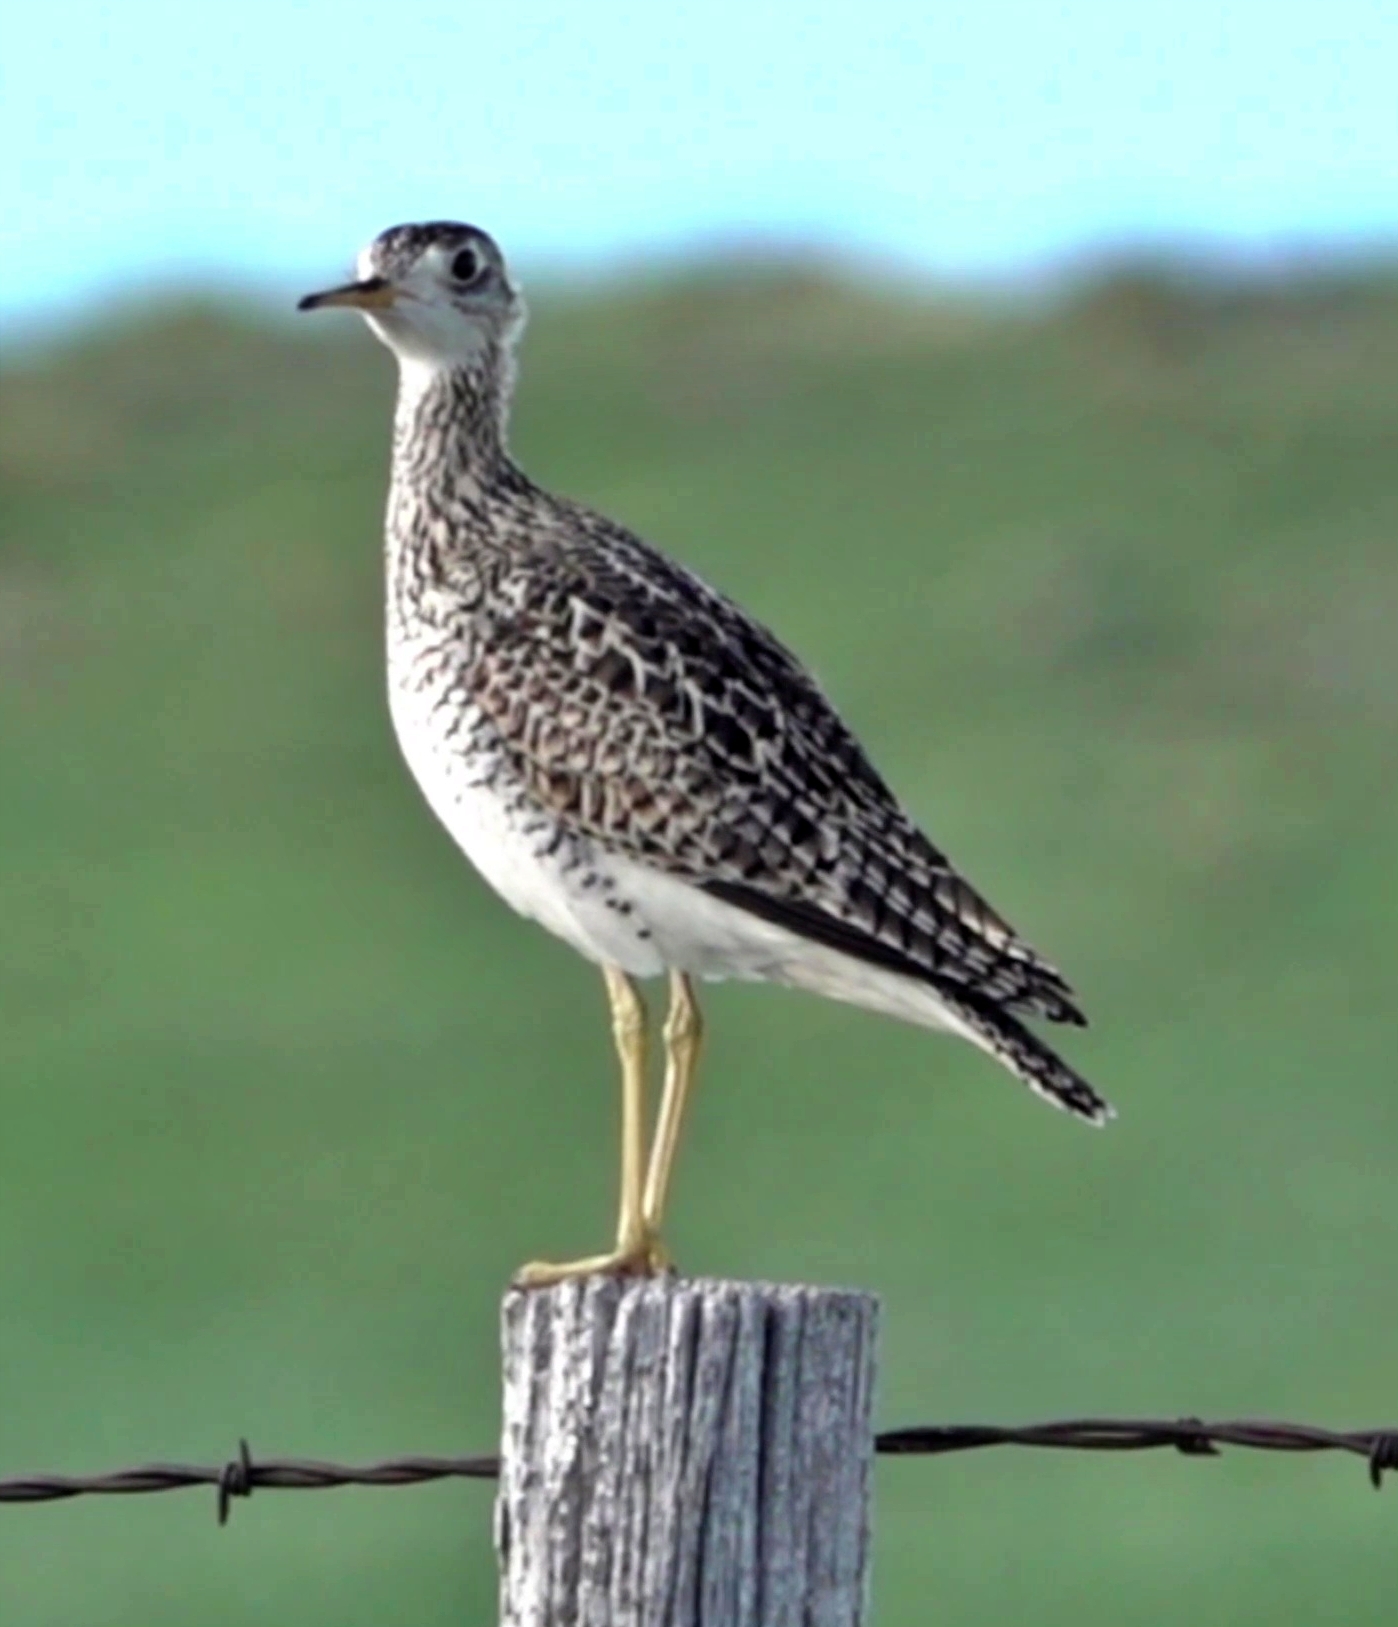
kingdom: Animalia
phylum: Chordata
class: Aves
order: Charadriiformes
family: Scolopacidae
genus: Bartramia
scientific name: Bartramia longicauda
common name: Upland sandpiper
